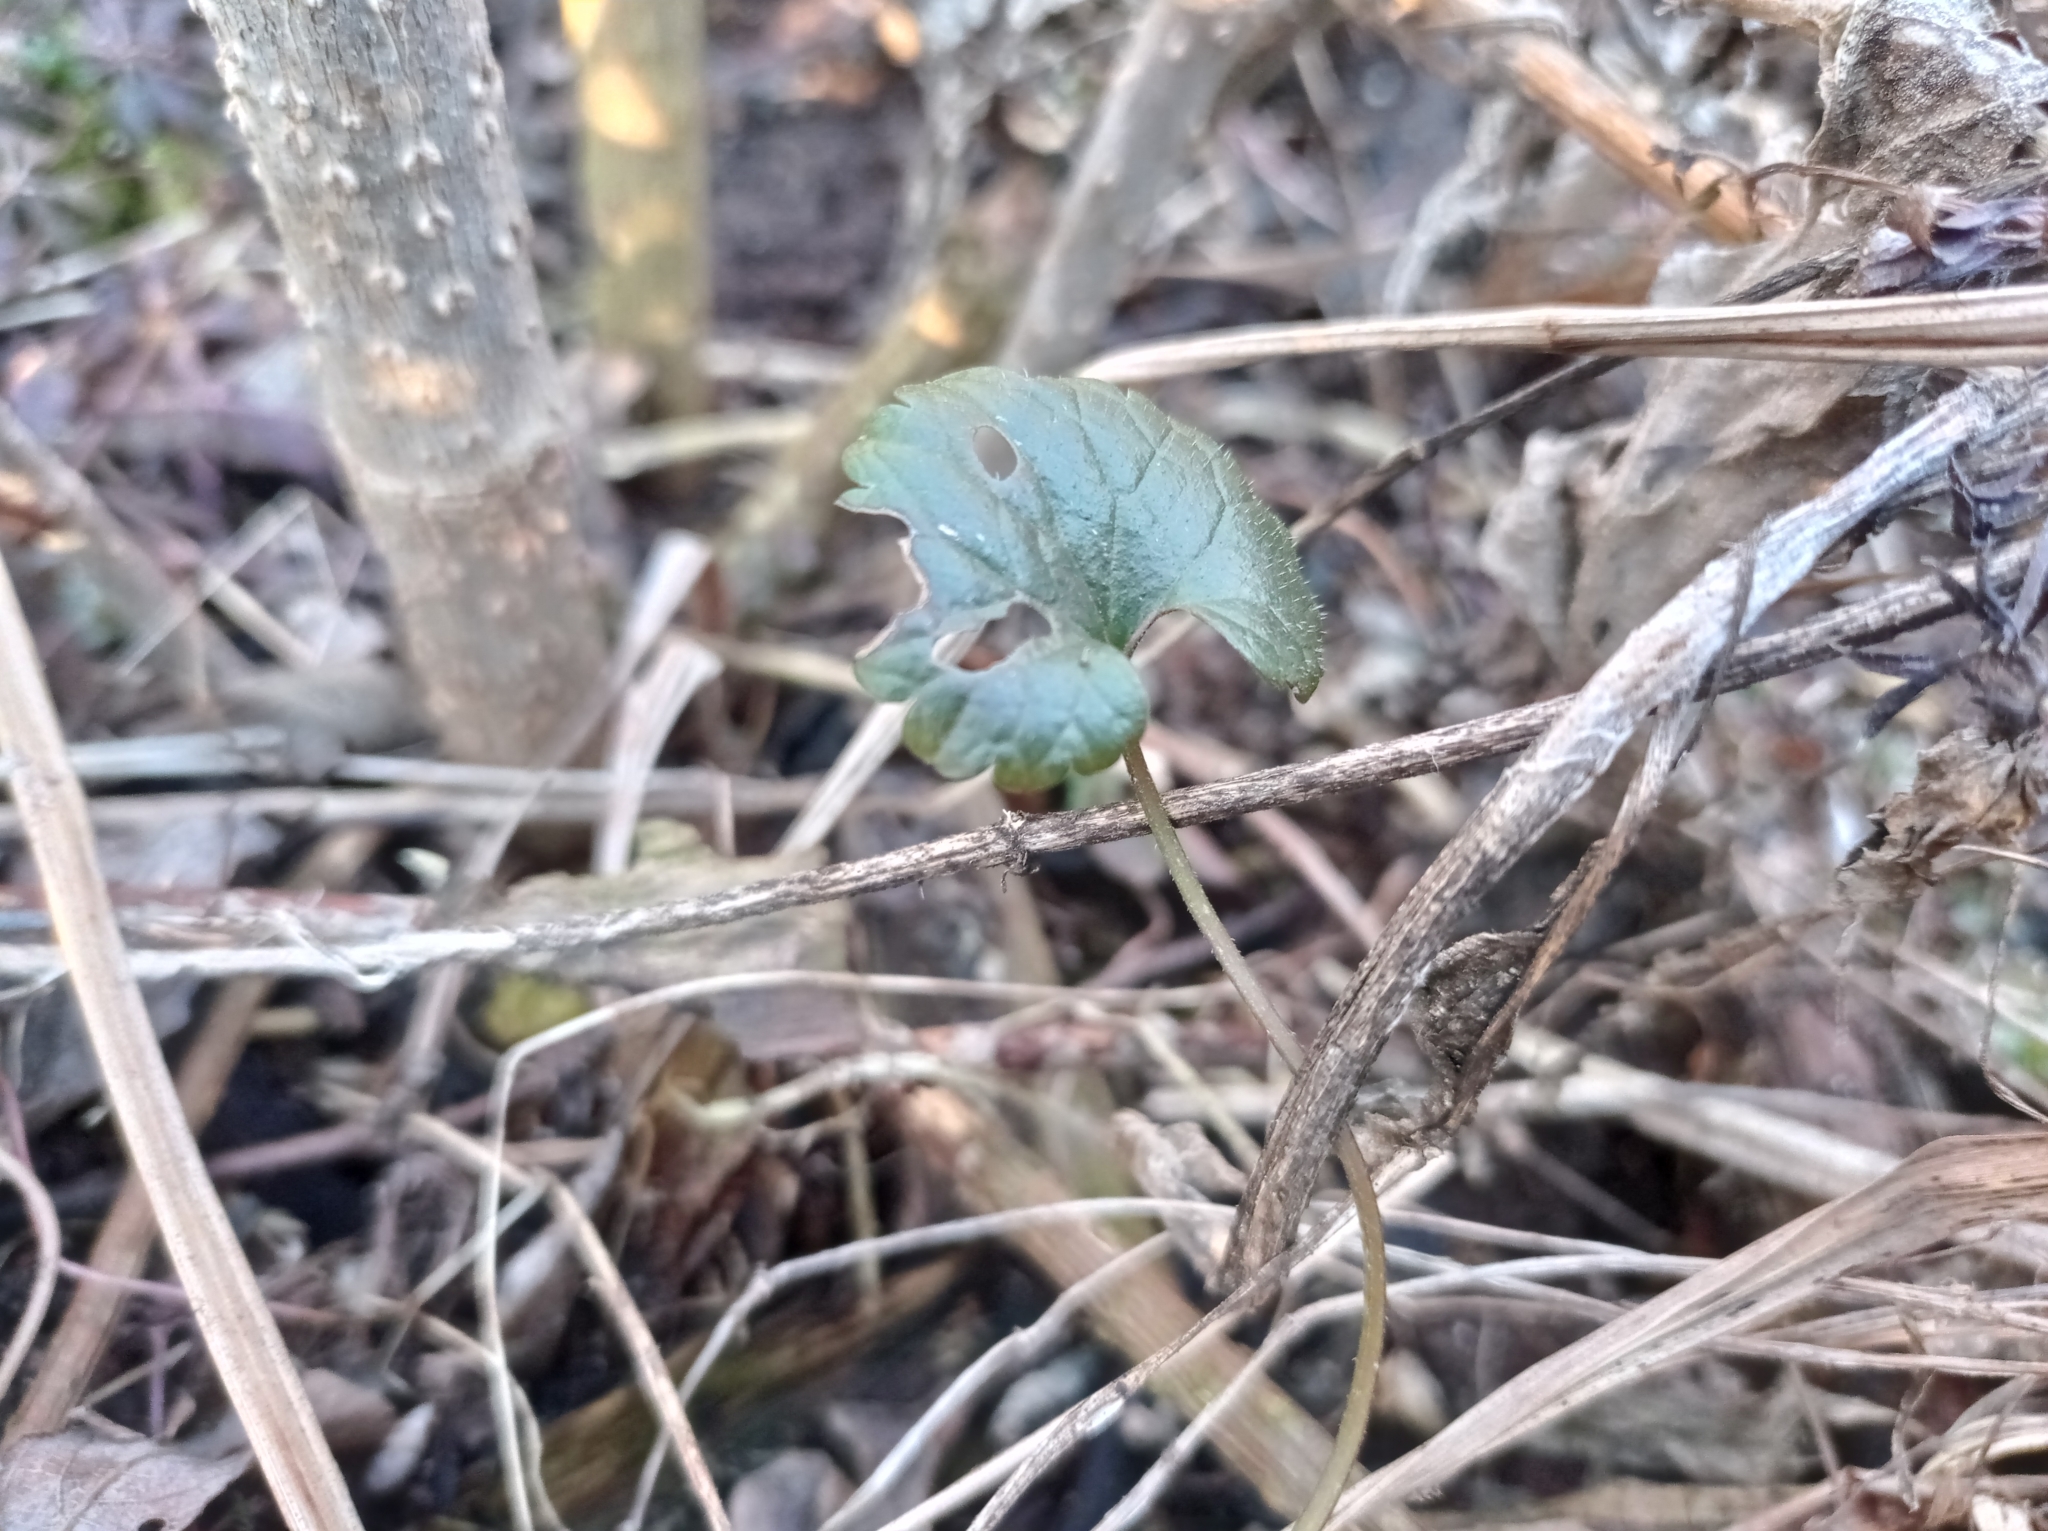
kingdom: Plantae
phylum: Tracheophyta
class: Magnoliopsida
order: Lamiales
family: Lamiaceae
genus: Glechoma
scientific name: Glechoma hederacea
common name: Ground ivy
